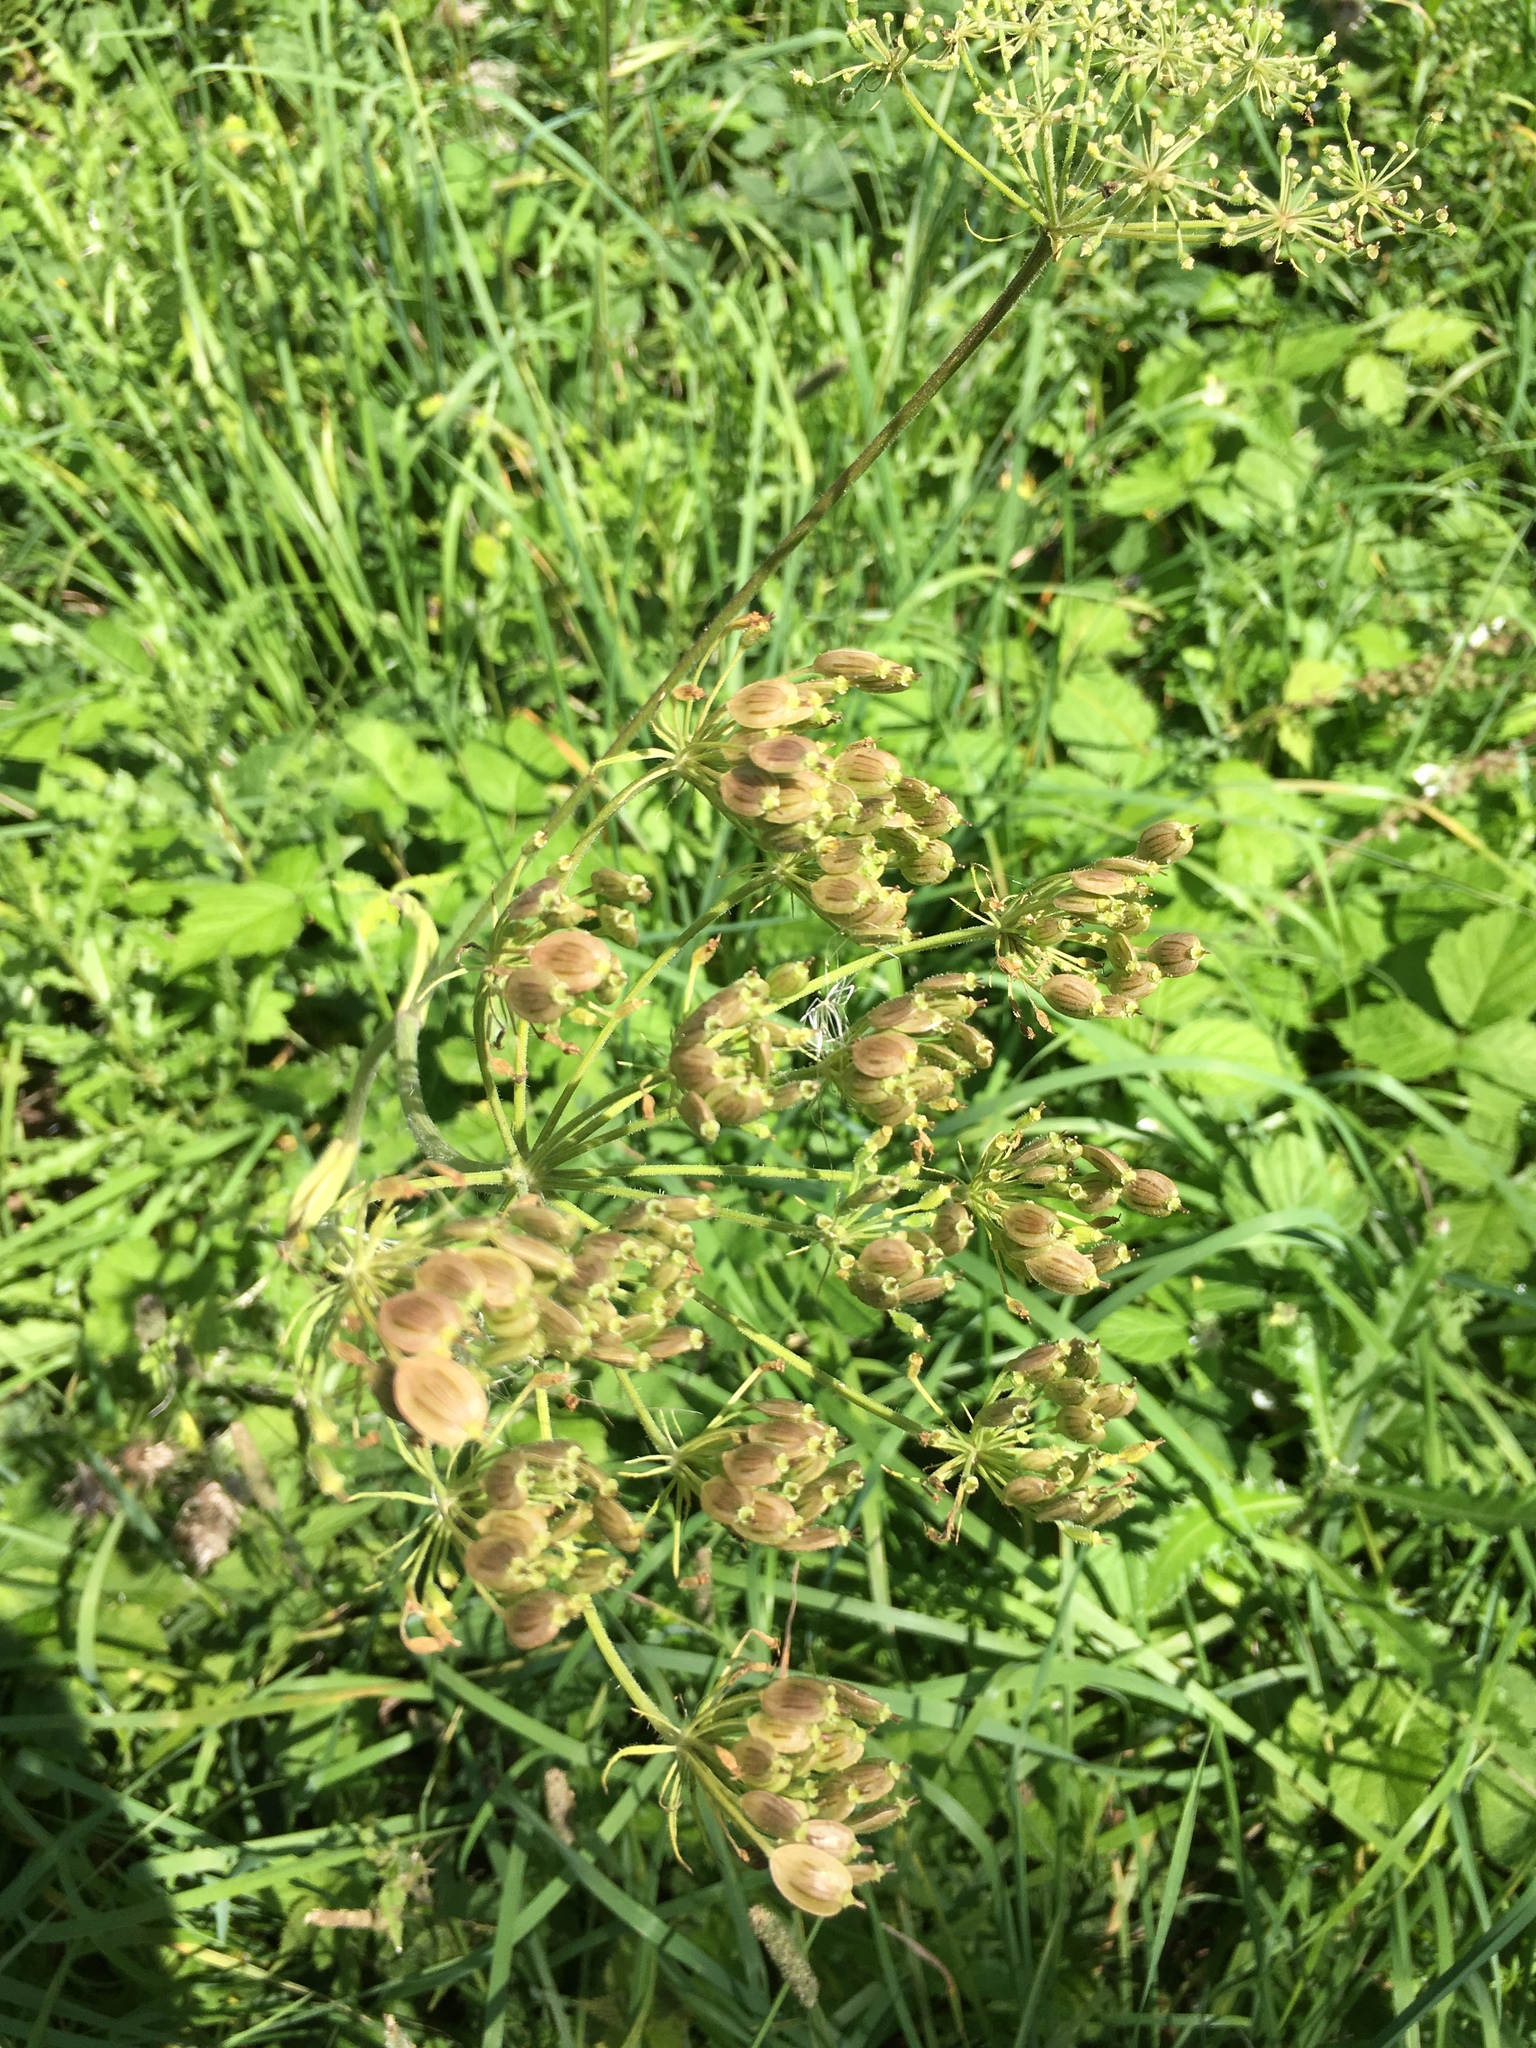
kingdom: Plantae
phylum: Tracheophyta
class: Magnoliopsida
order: Apiales
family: Apiaceae
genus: Heracleum
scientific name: Heracleum sphondylium
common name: Hogweed
